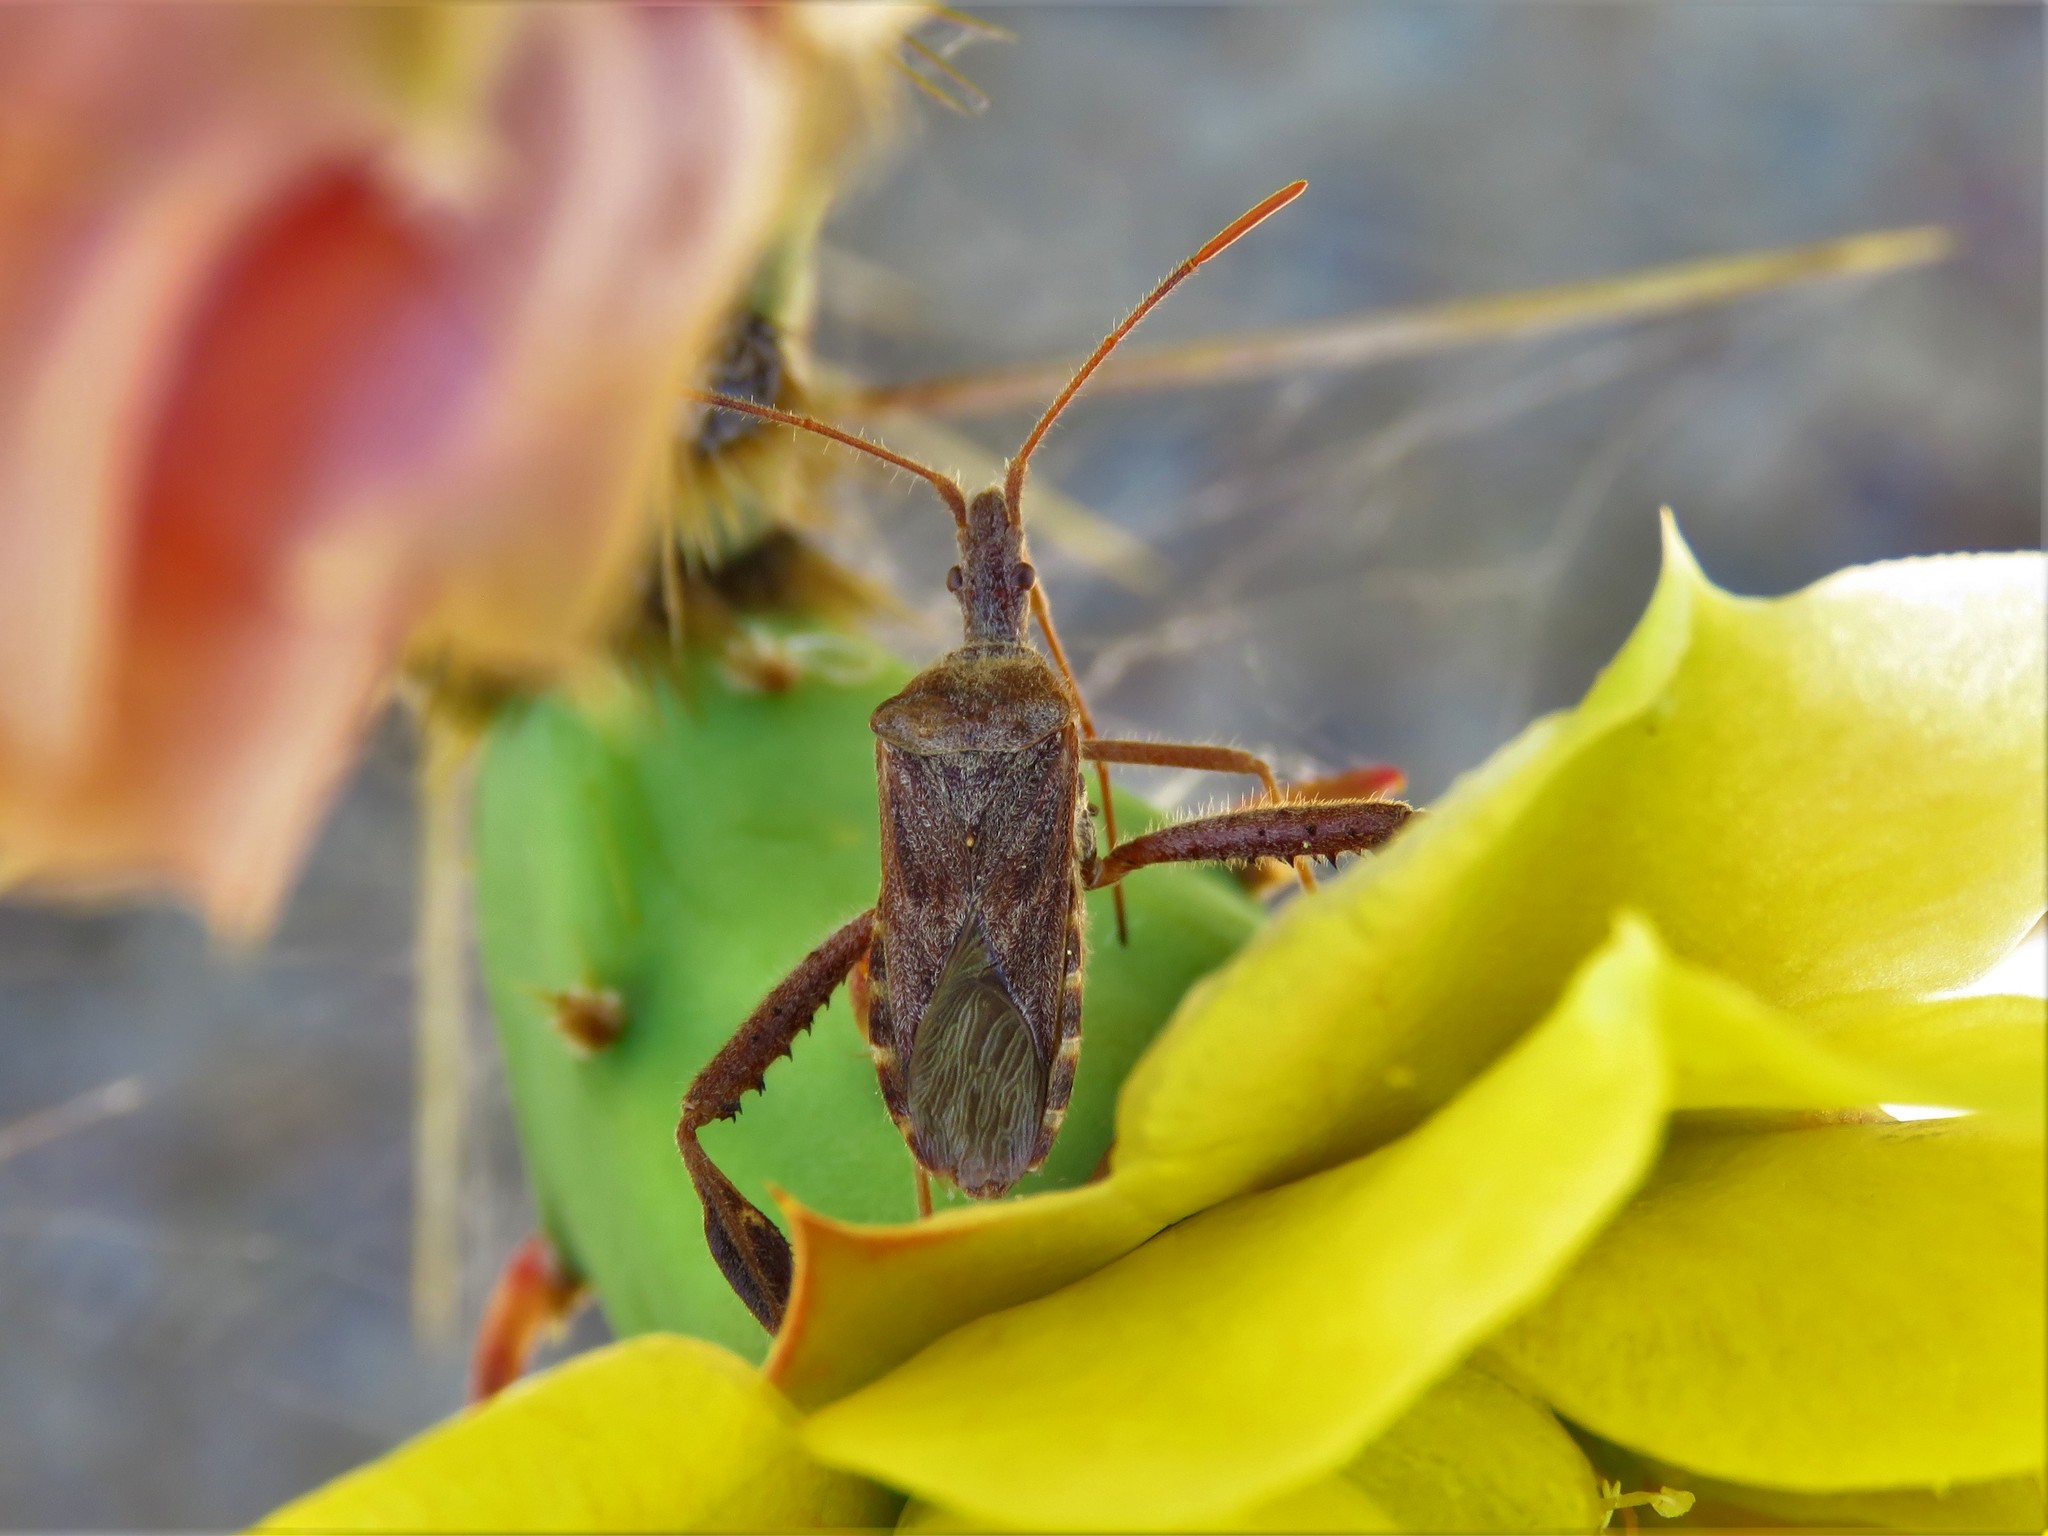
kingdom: Animalia
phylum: Arthropoda
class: Insecta
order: Hemiptera
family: Coreidae
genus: Narnia
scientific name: Narnia femorata
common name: Leaf-footed cactus bug
